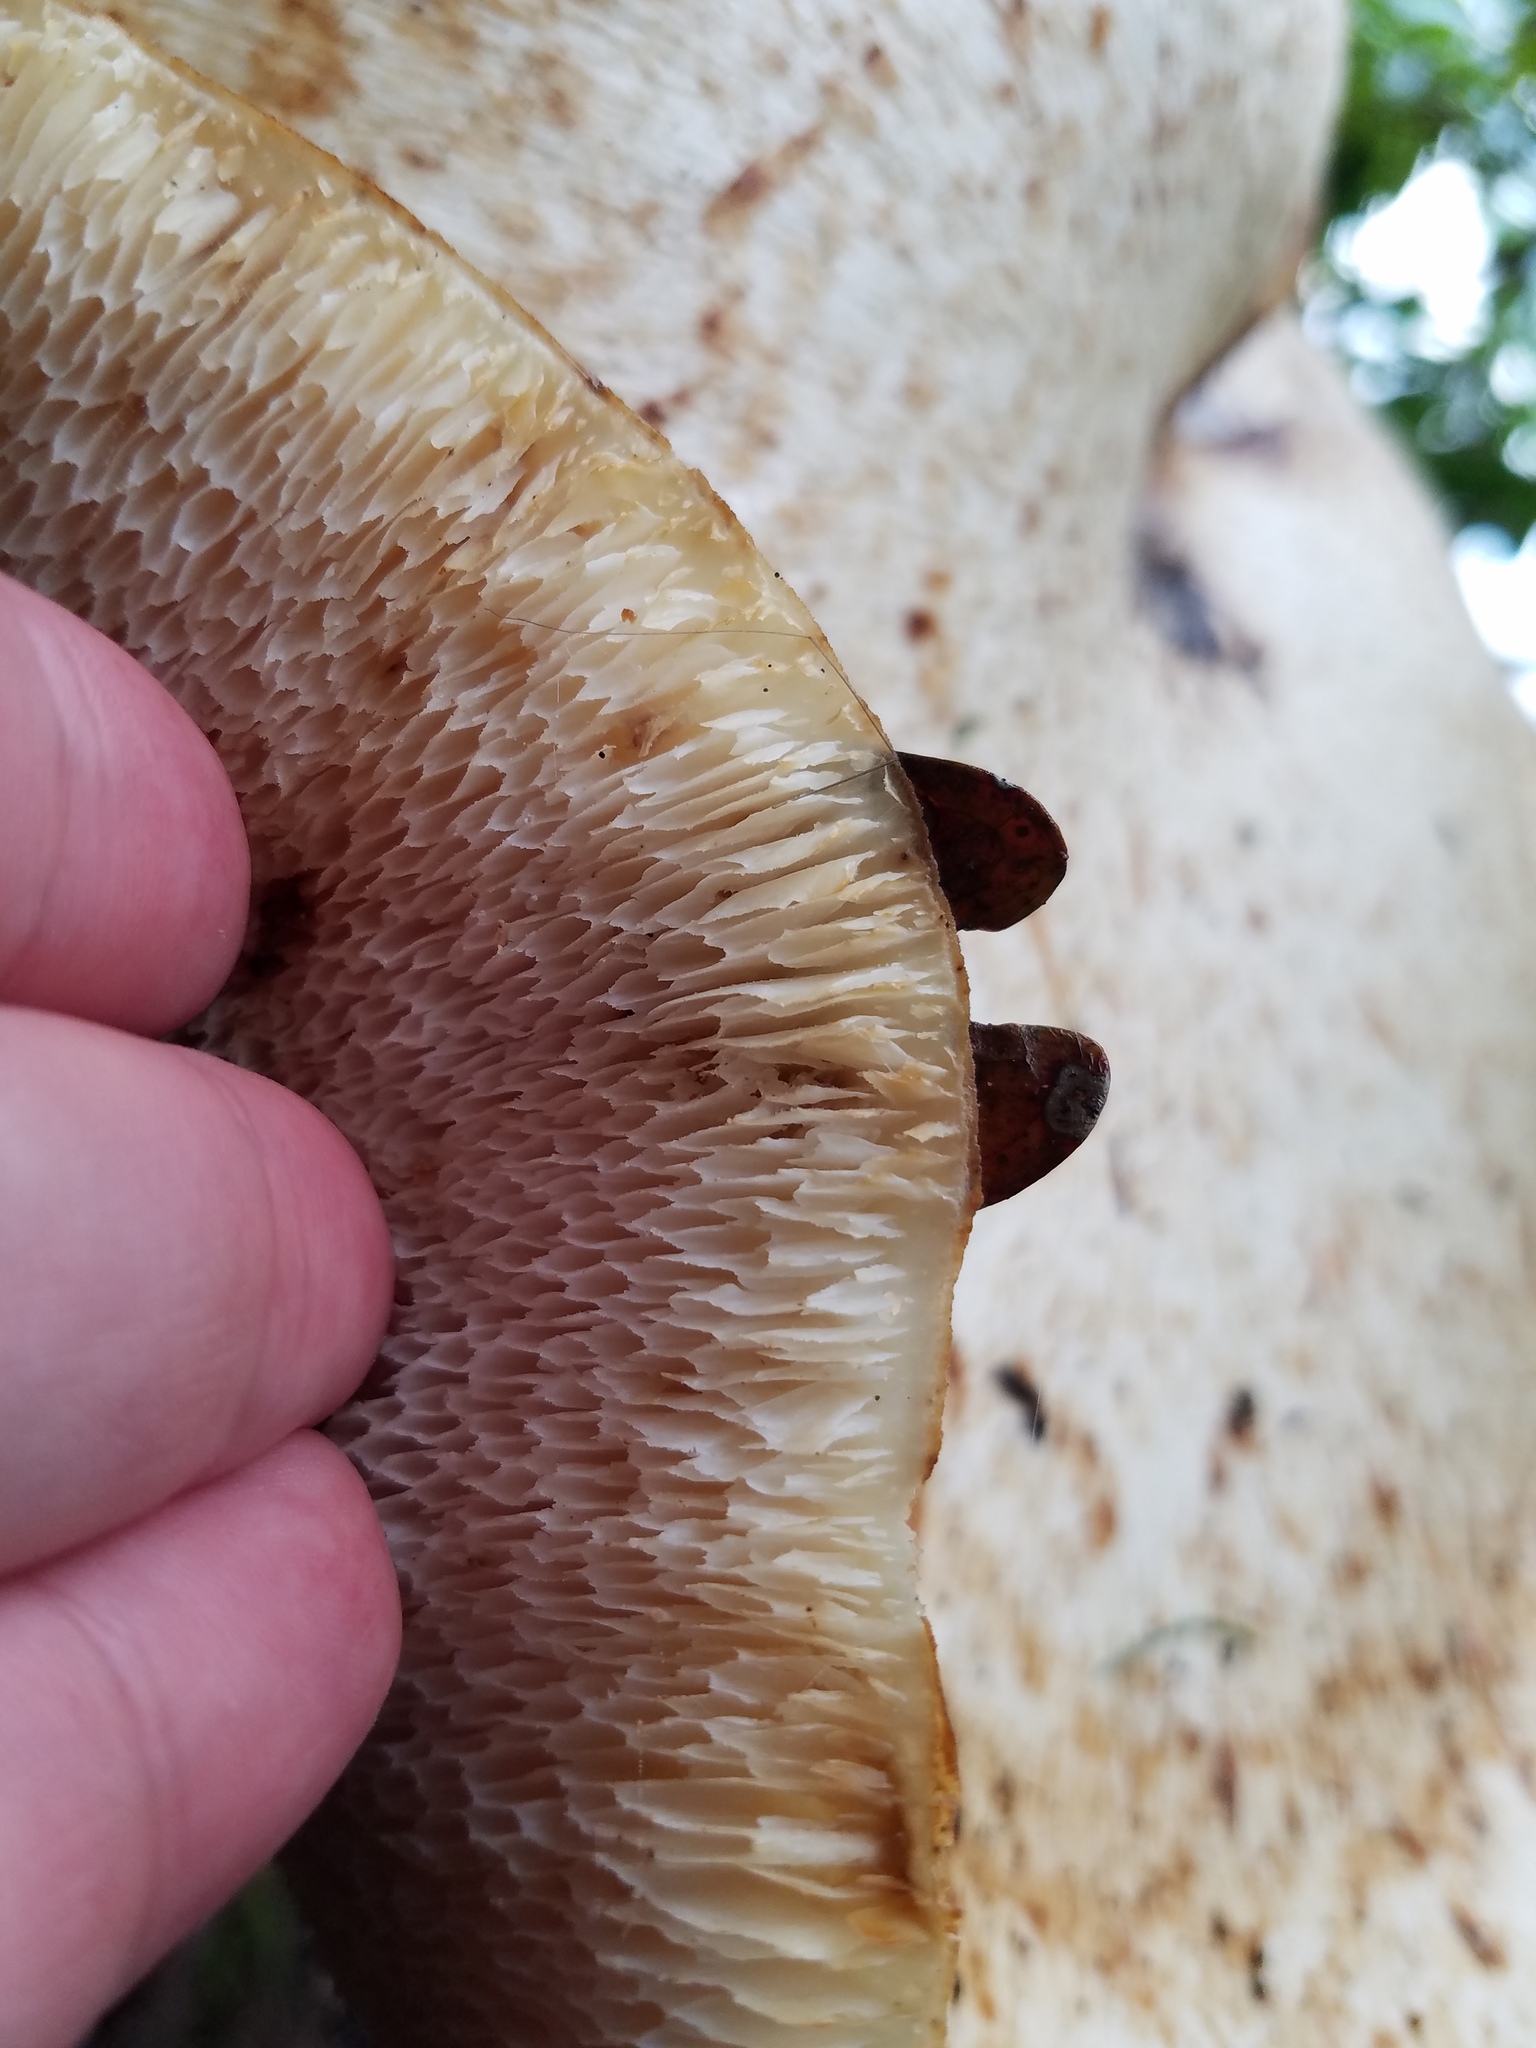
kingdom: Fungi
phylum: Basidiomycota
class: Agaricomycetes
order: Polyporales
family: Polyporaceae
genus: Cerioporus
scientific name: Cerioporus squamosus
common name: Dryad's saddle
